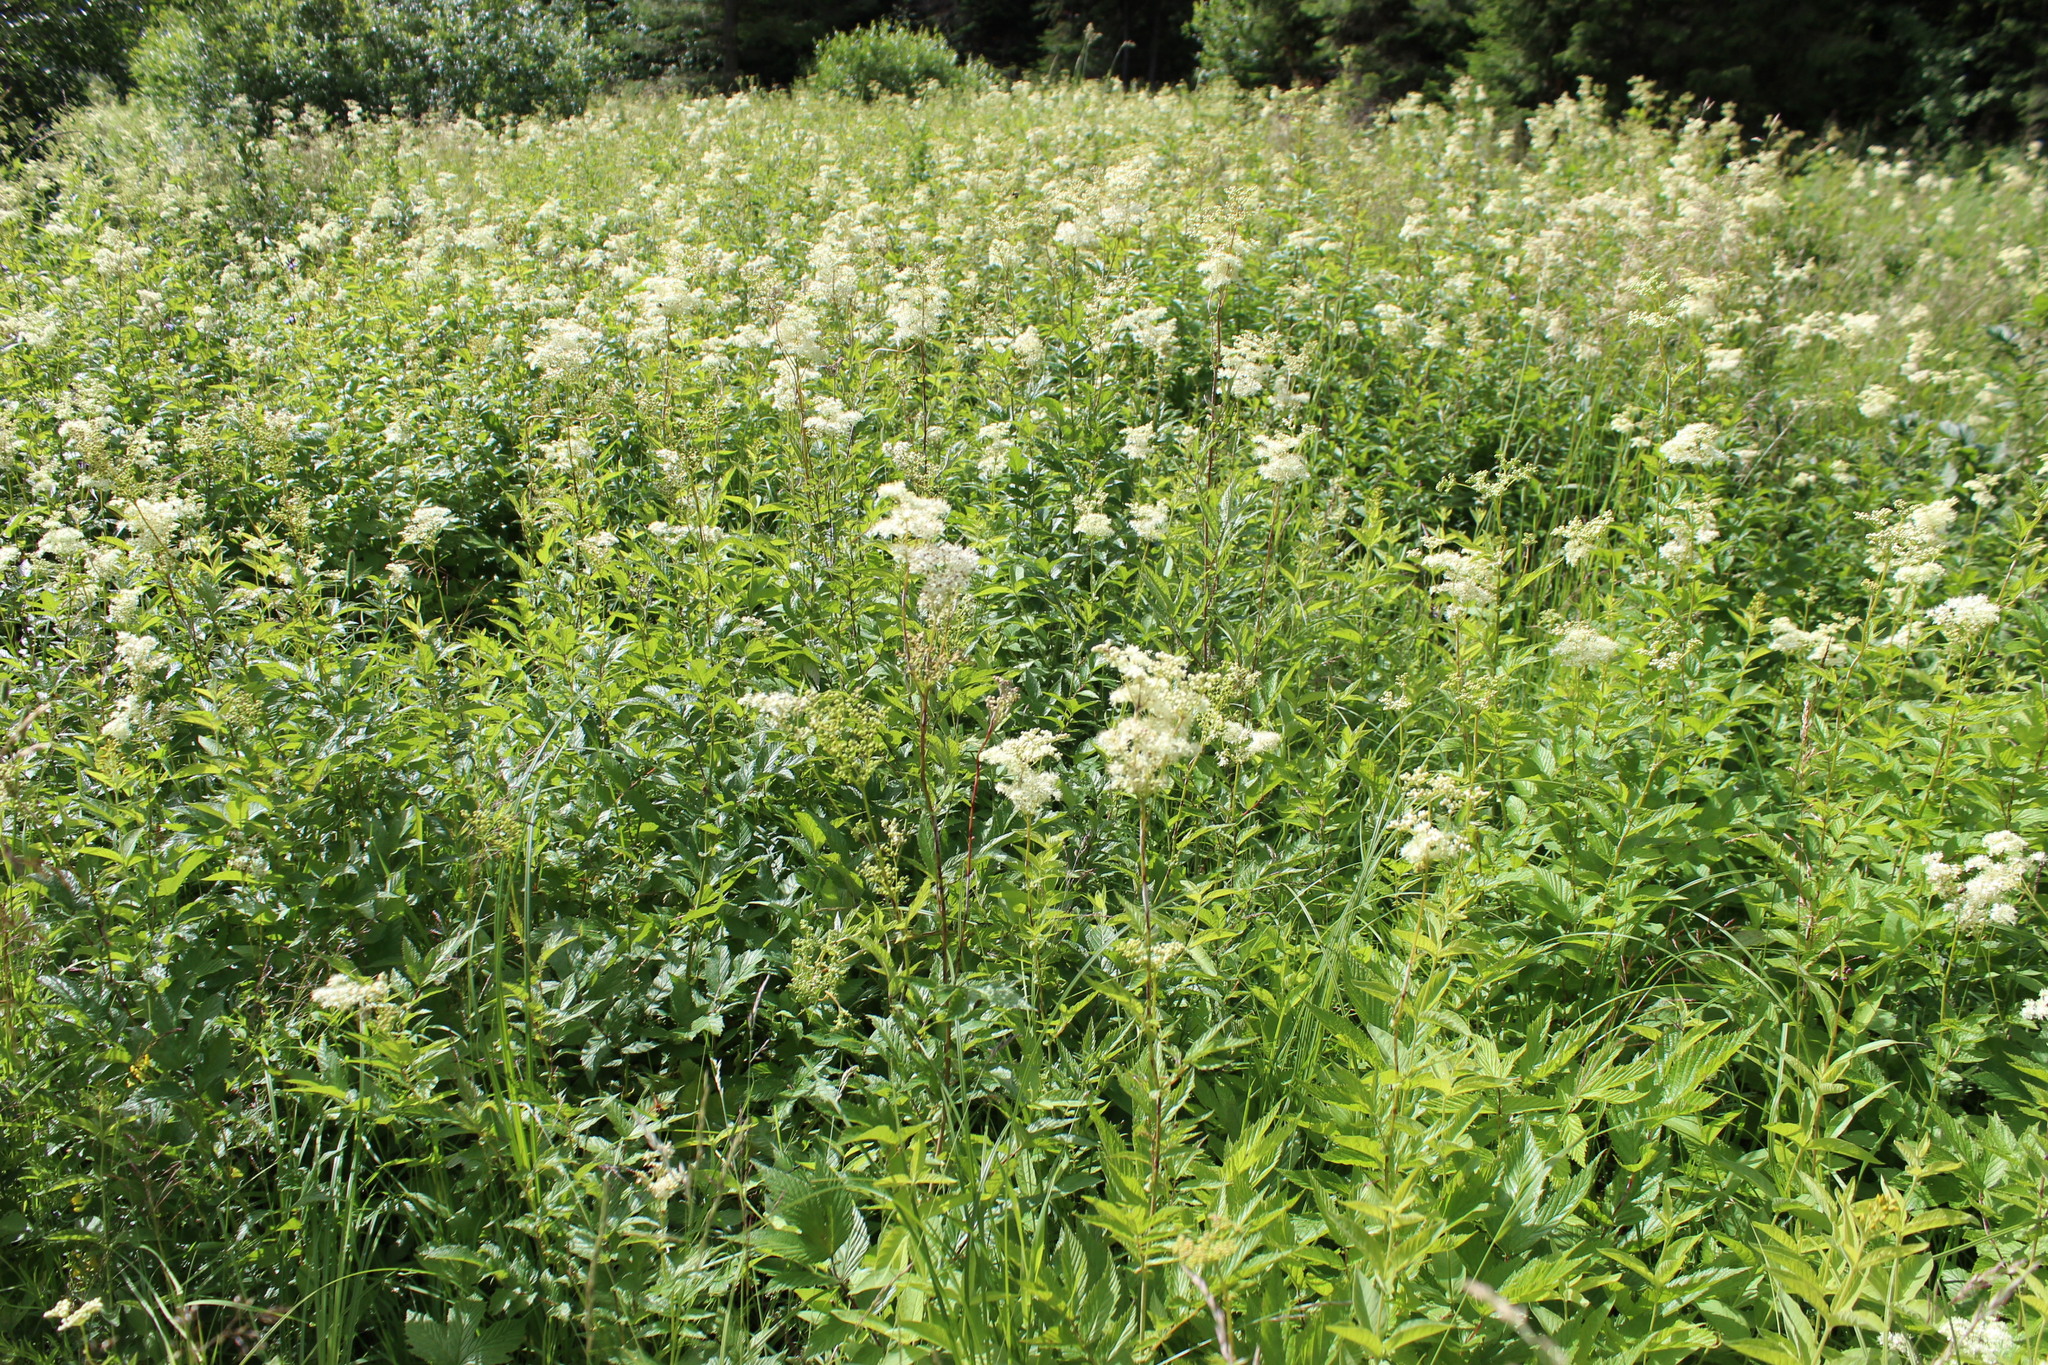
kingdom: Plantae
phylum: Tracheophyta
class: Magnoliopsida
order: Rosales
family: Rosaceae
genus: Filipendula
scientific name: Filipendula ulmaria
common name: Meadowsweet
